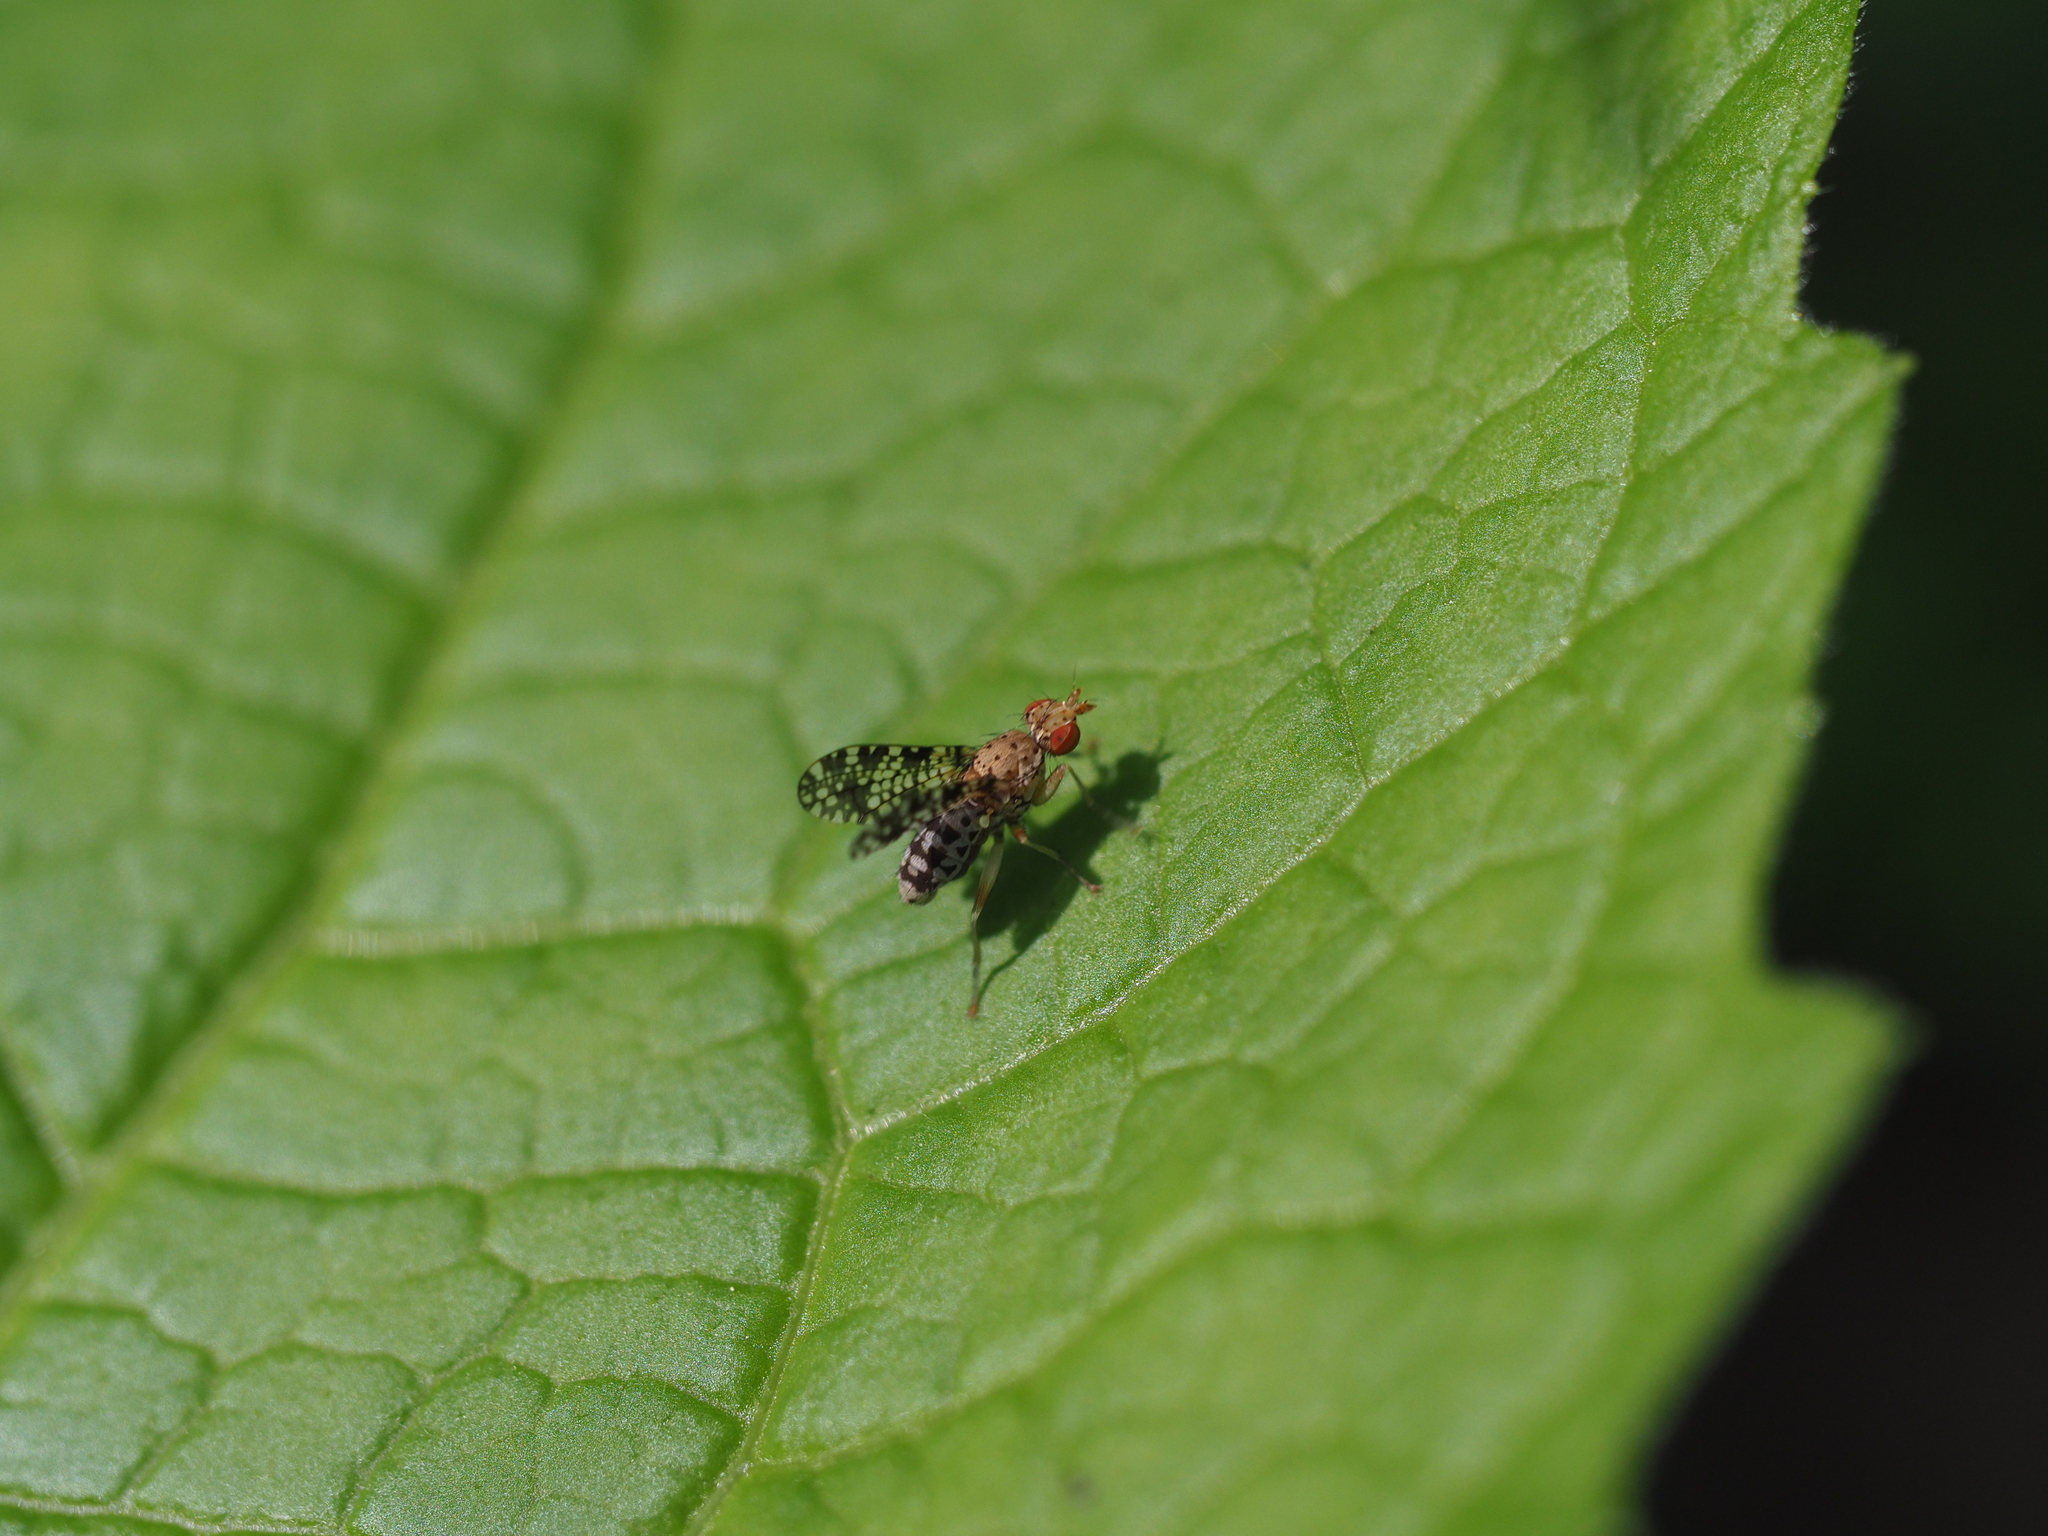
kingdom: Animalia
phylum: Arthropoda
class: Insecta
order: Diptera
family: Sciomyzidae
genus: Trypetoptera
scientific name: Trypetoptera punctulata
